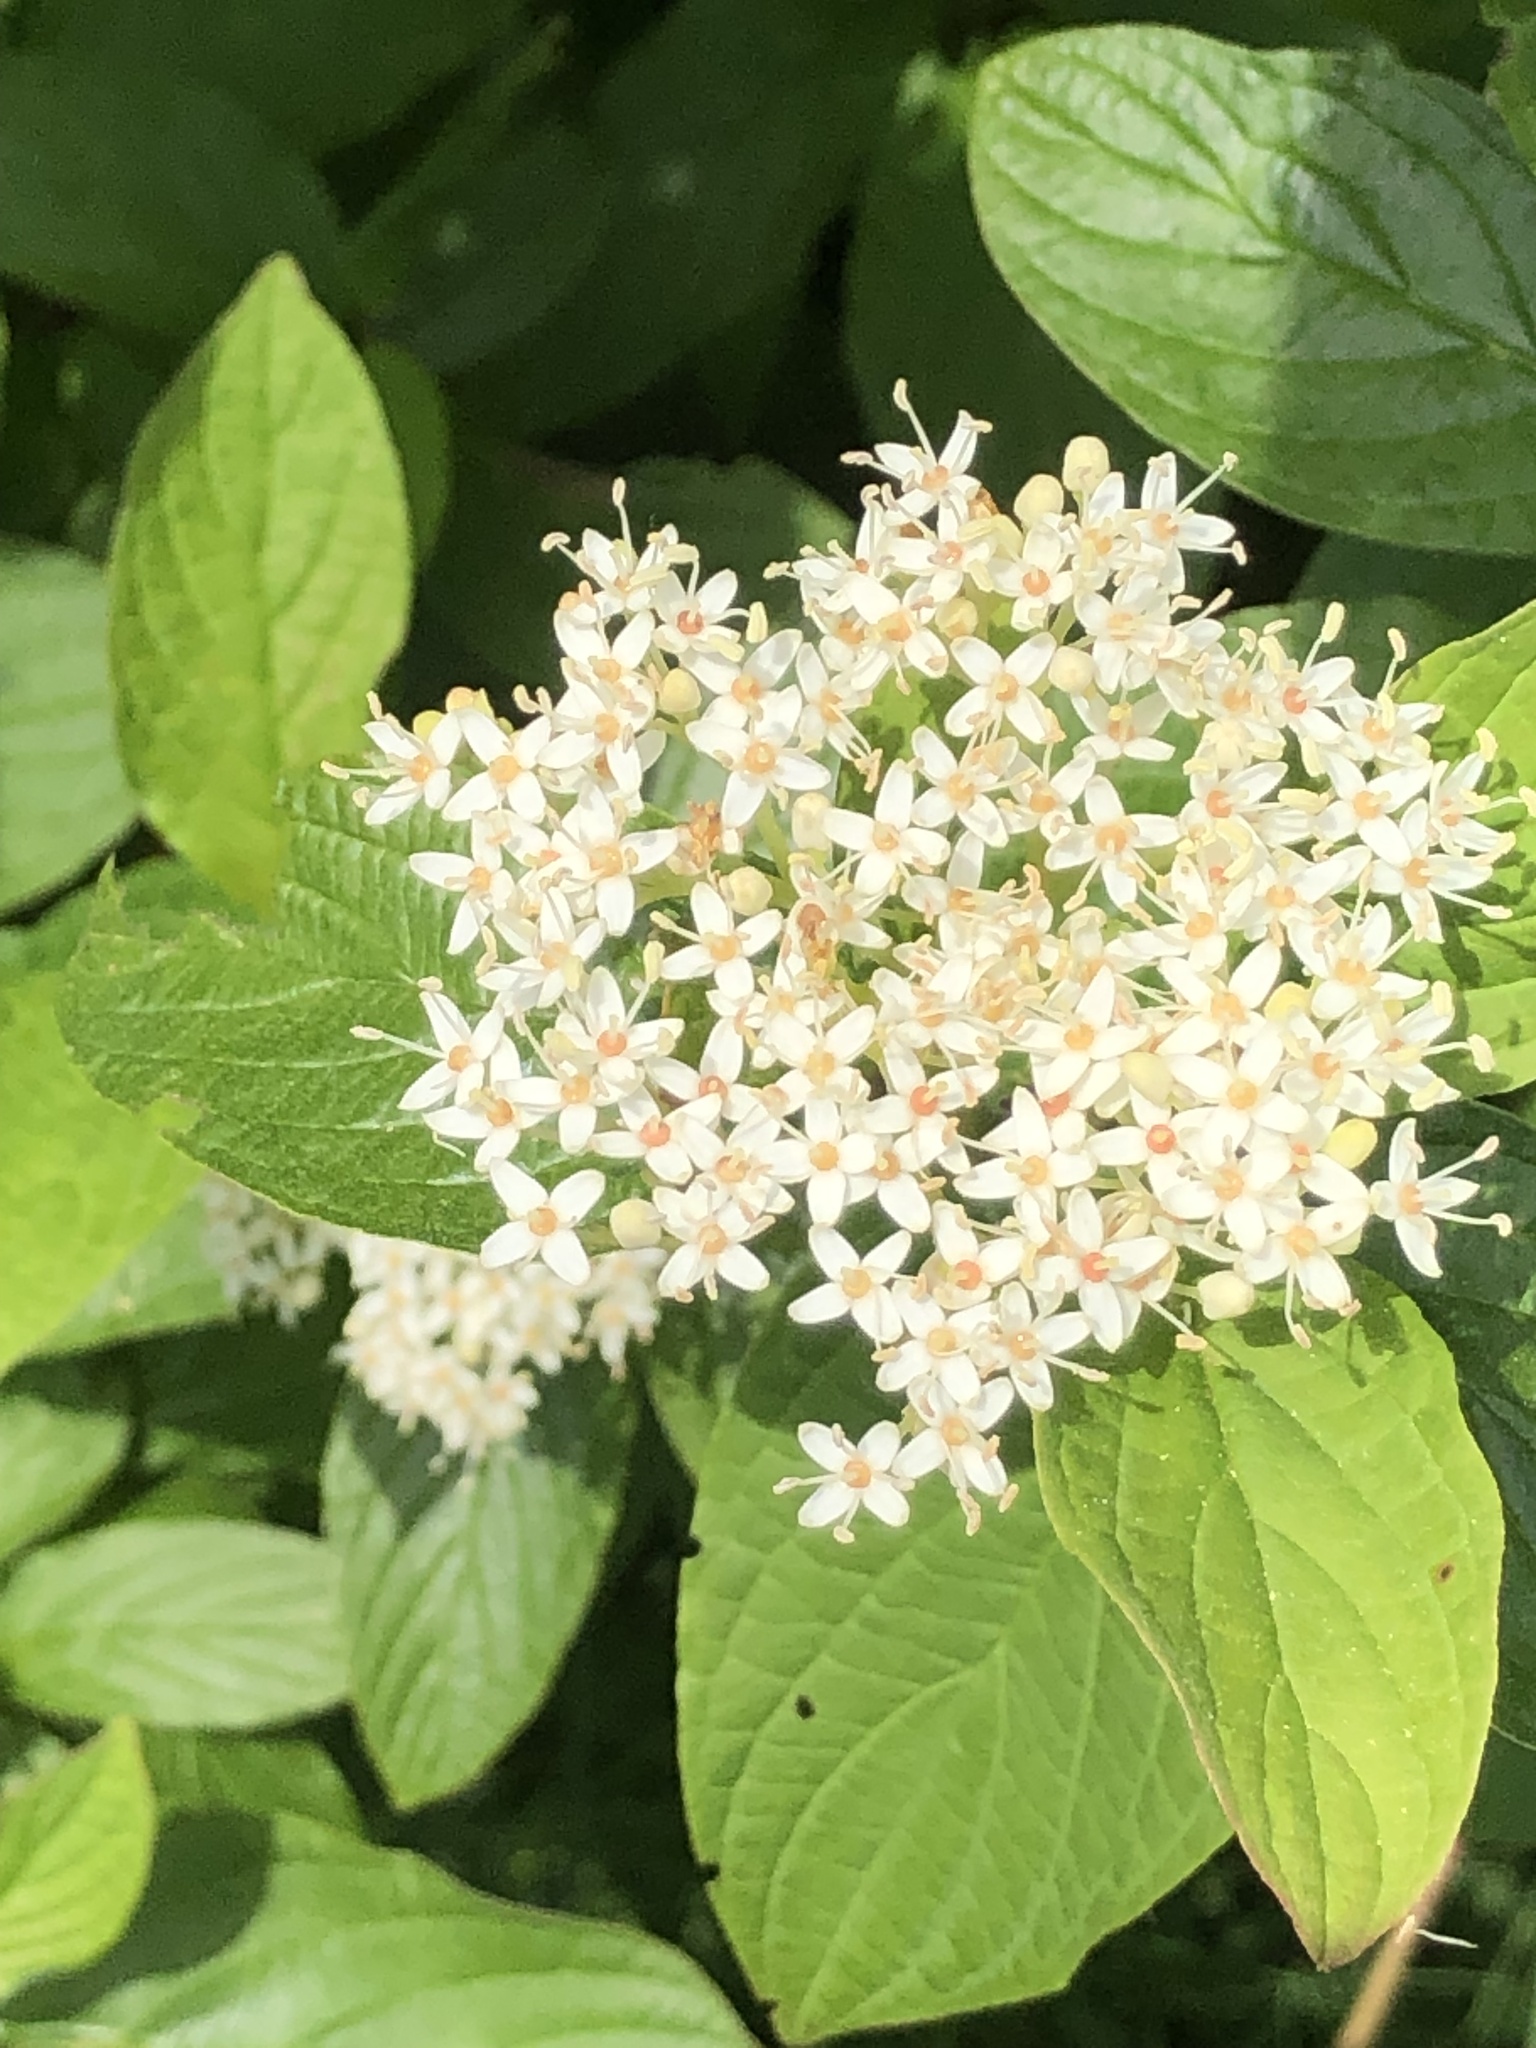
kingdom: Plantae
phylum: Tracheophyta
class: Magnoliopsida
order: Cornales
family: Cornaceae
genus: Cornus
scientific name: Cornus sericea
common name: Red-osier dogwood
